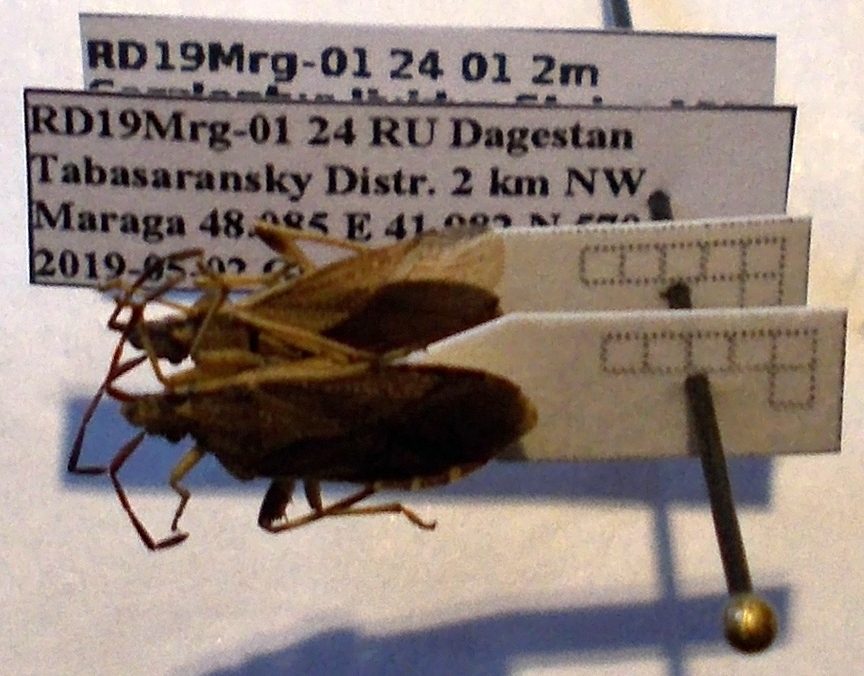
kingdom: Animalia
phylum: Arthropoda
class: Insecta
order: Hemiptera
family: Coreidae
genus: Ceraleptus
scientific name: Ceraleptus lividus
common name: Slender-horned leatherbug
